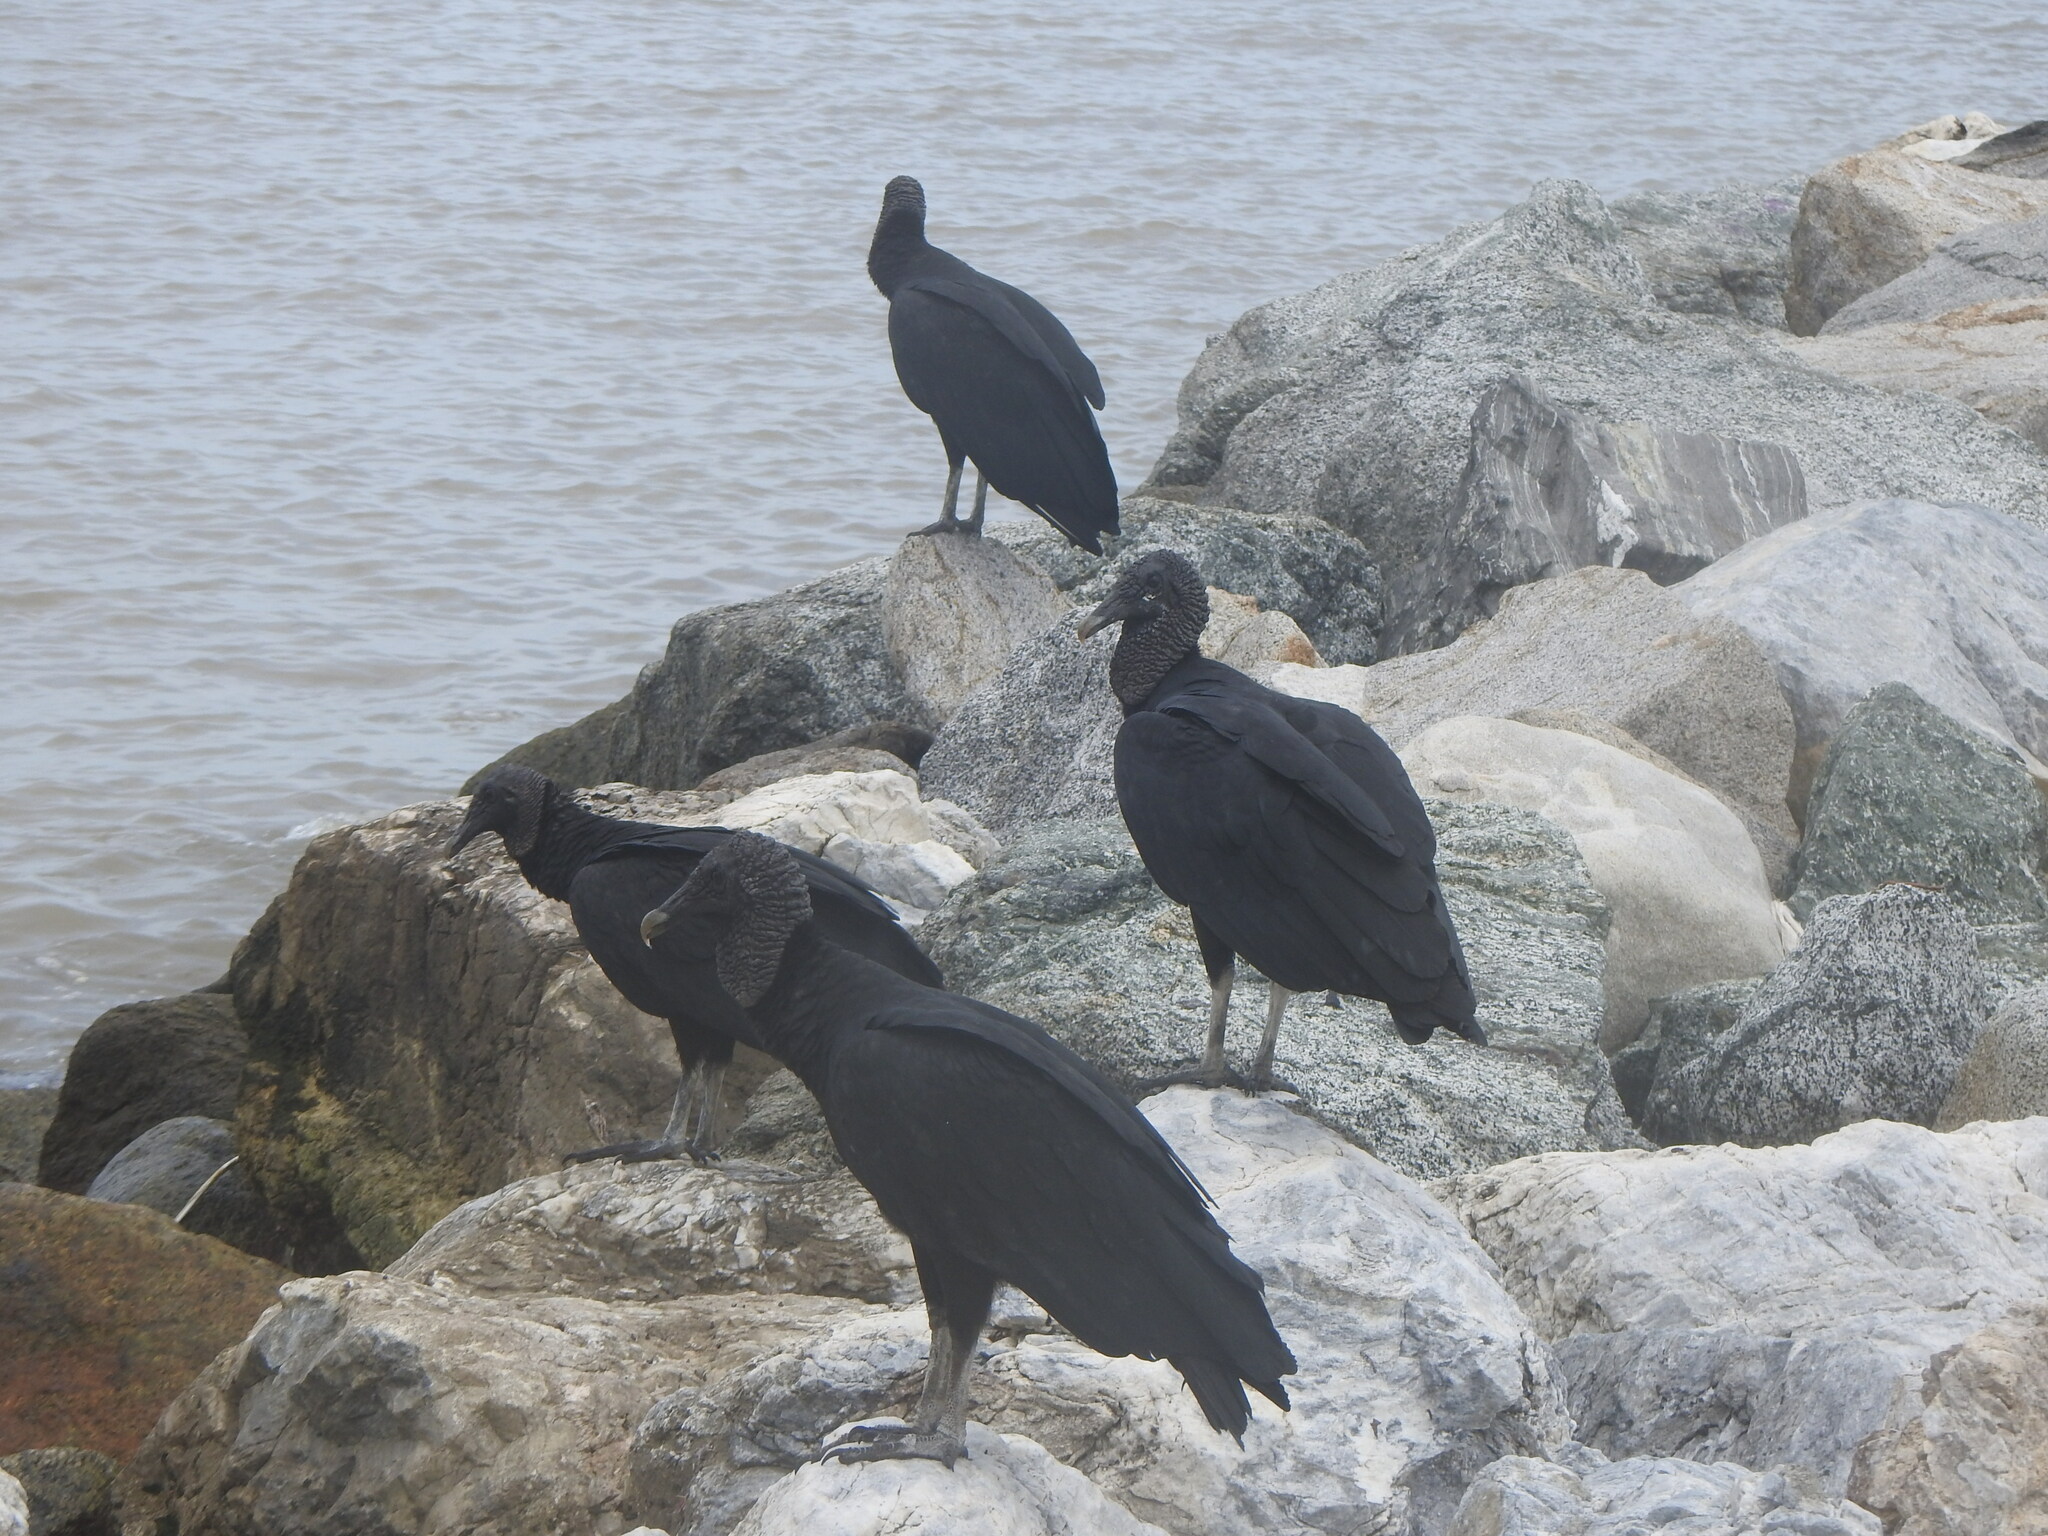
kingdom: Animalia
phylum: Chordata
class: Aves
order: Accipitriformes
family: Cathartidae
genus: Coragyps
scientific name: Coragyps atratus
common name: Black vulture
